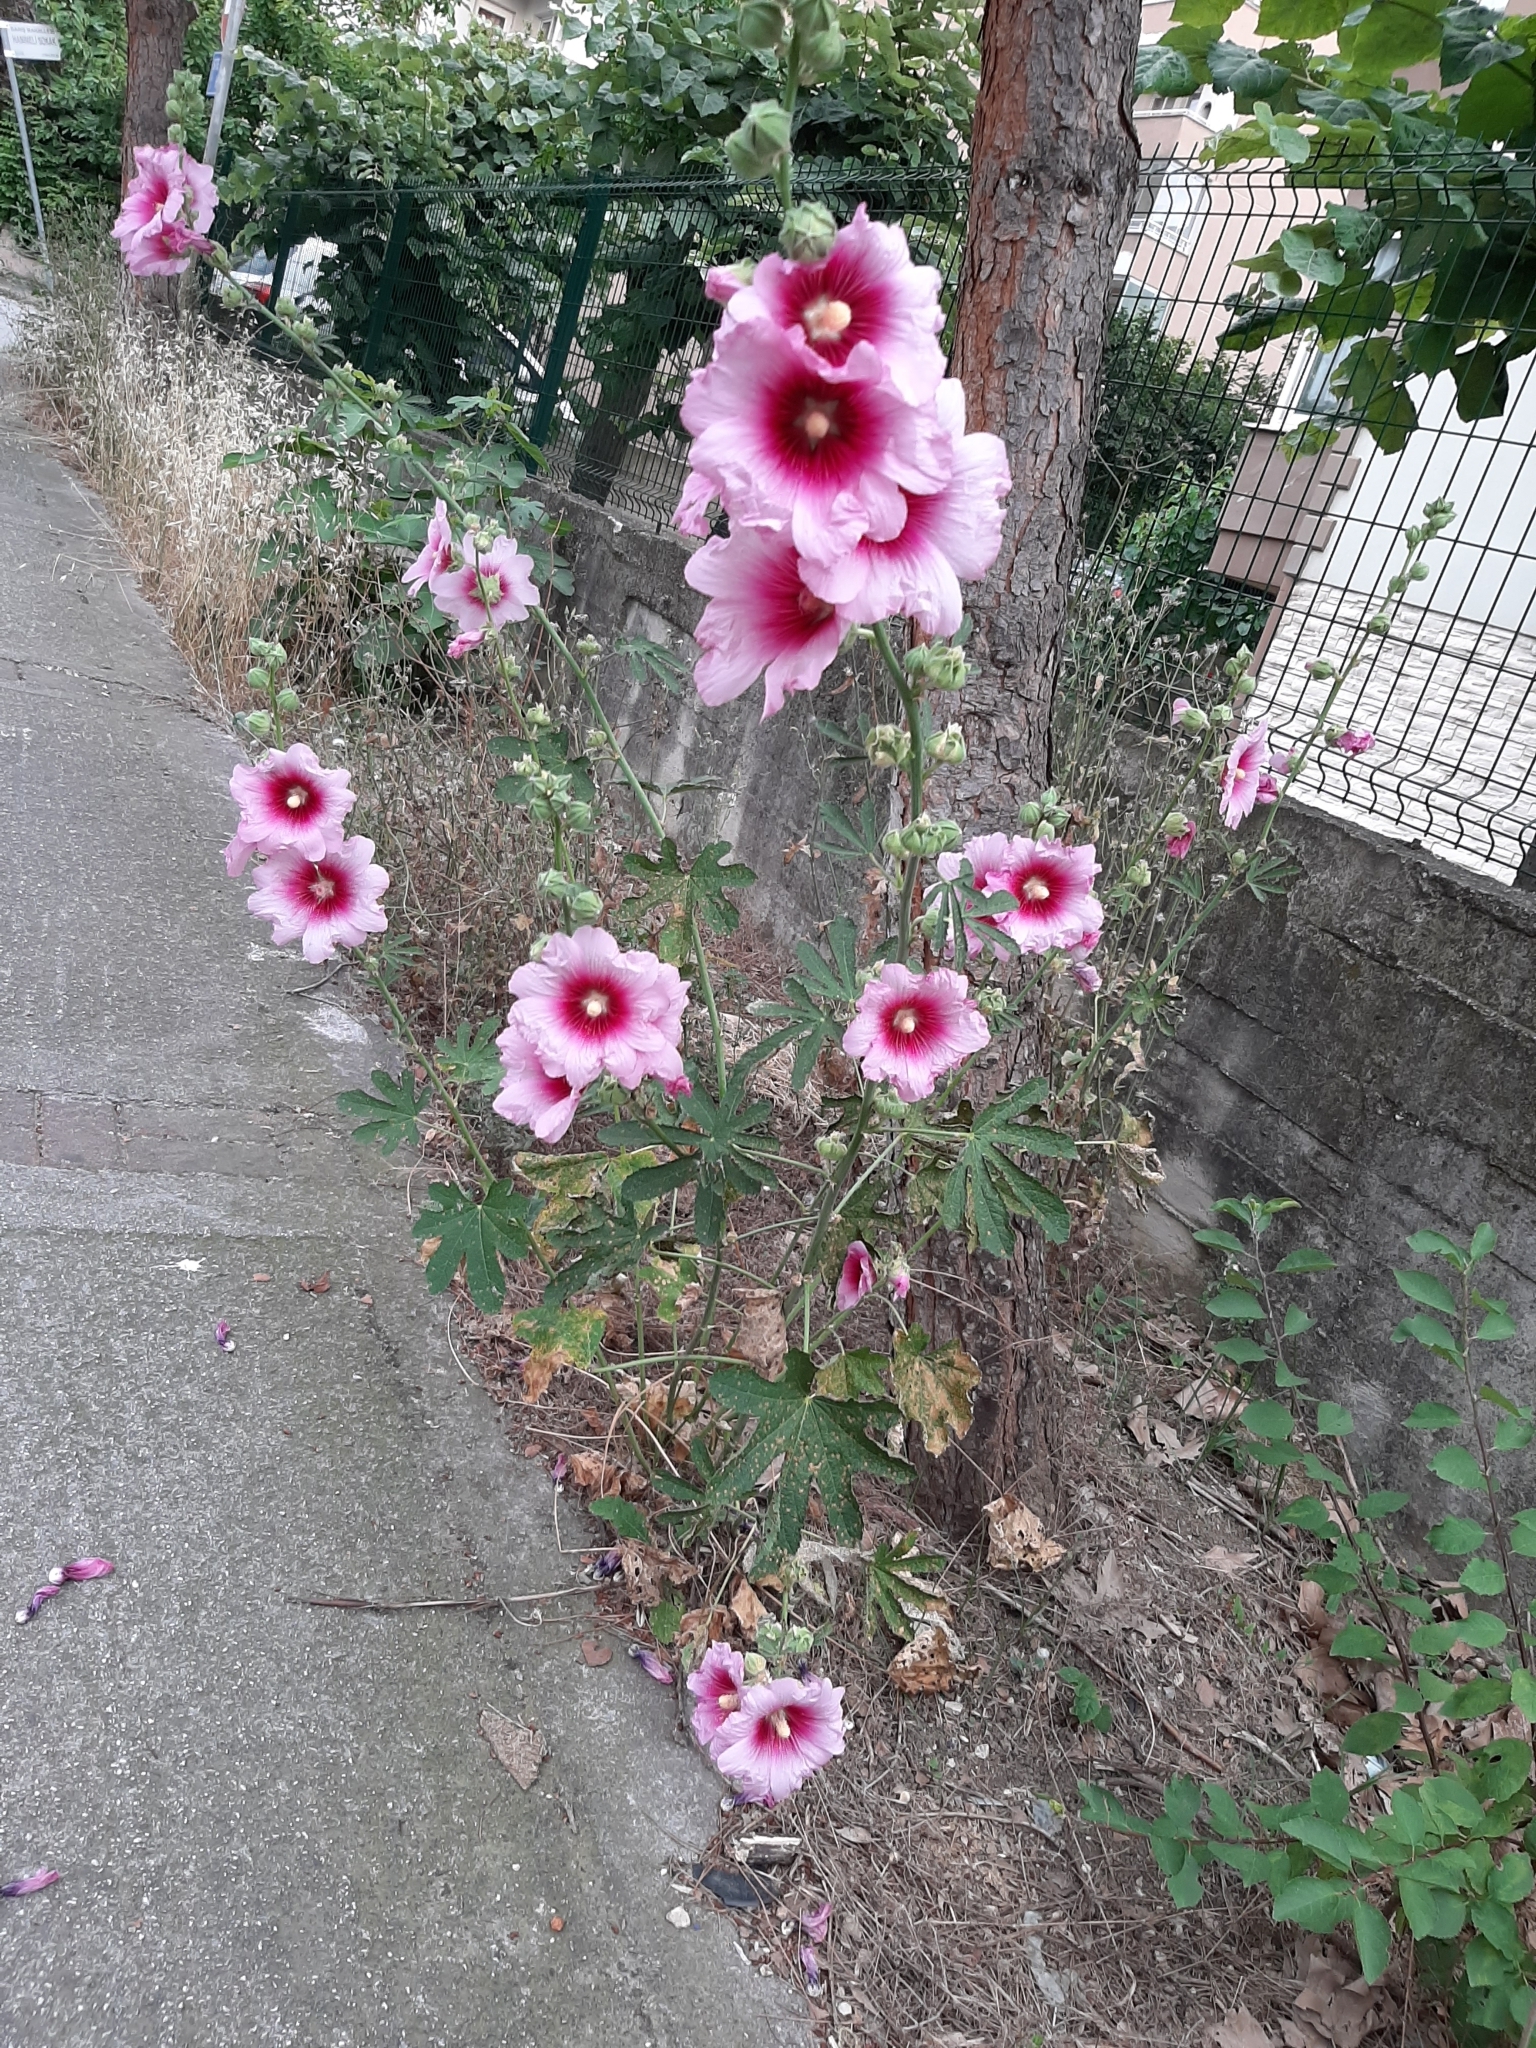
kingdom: Plantae
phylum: Tracheophyta
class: Magnoliopsida
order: Malvales
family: Malvaceae
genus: Alcea
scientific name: Alcea rosea
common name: Hollyhock
